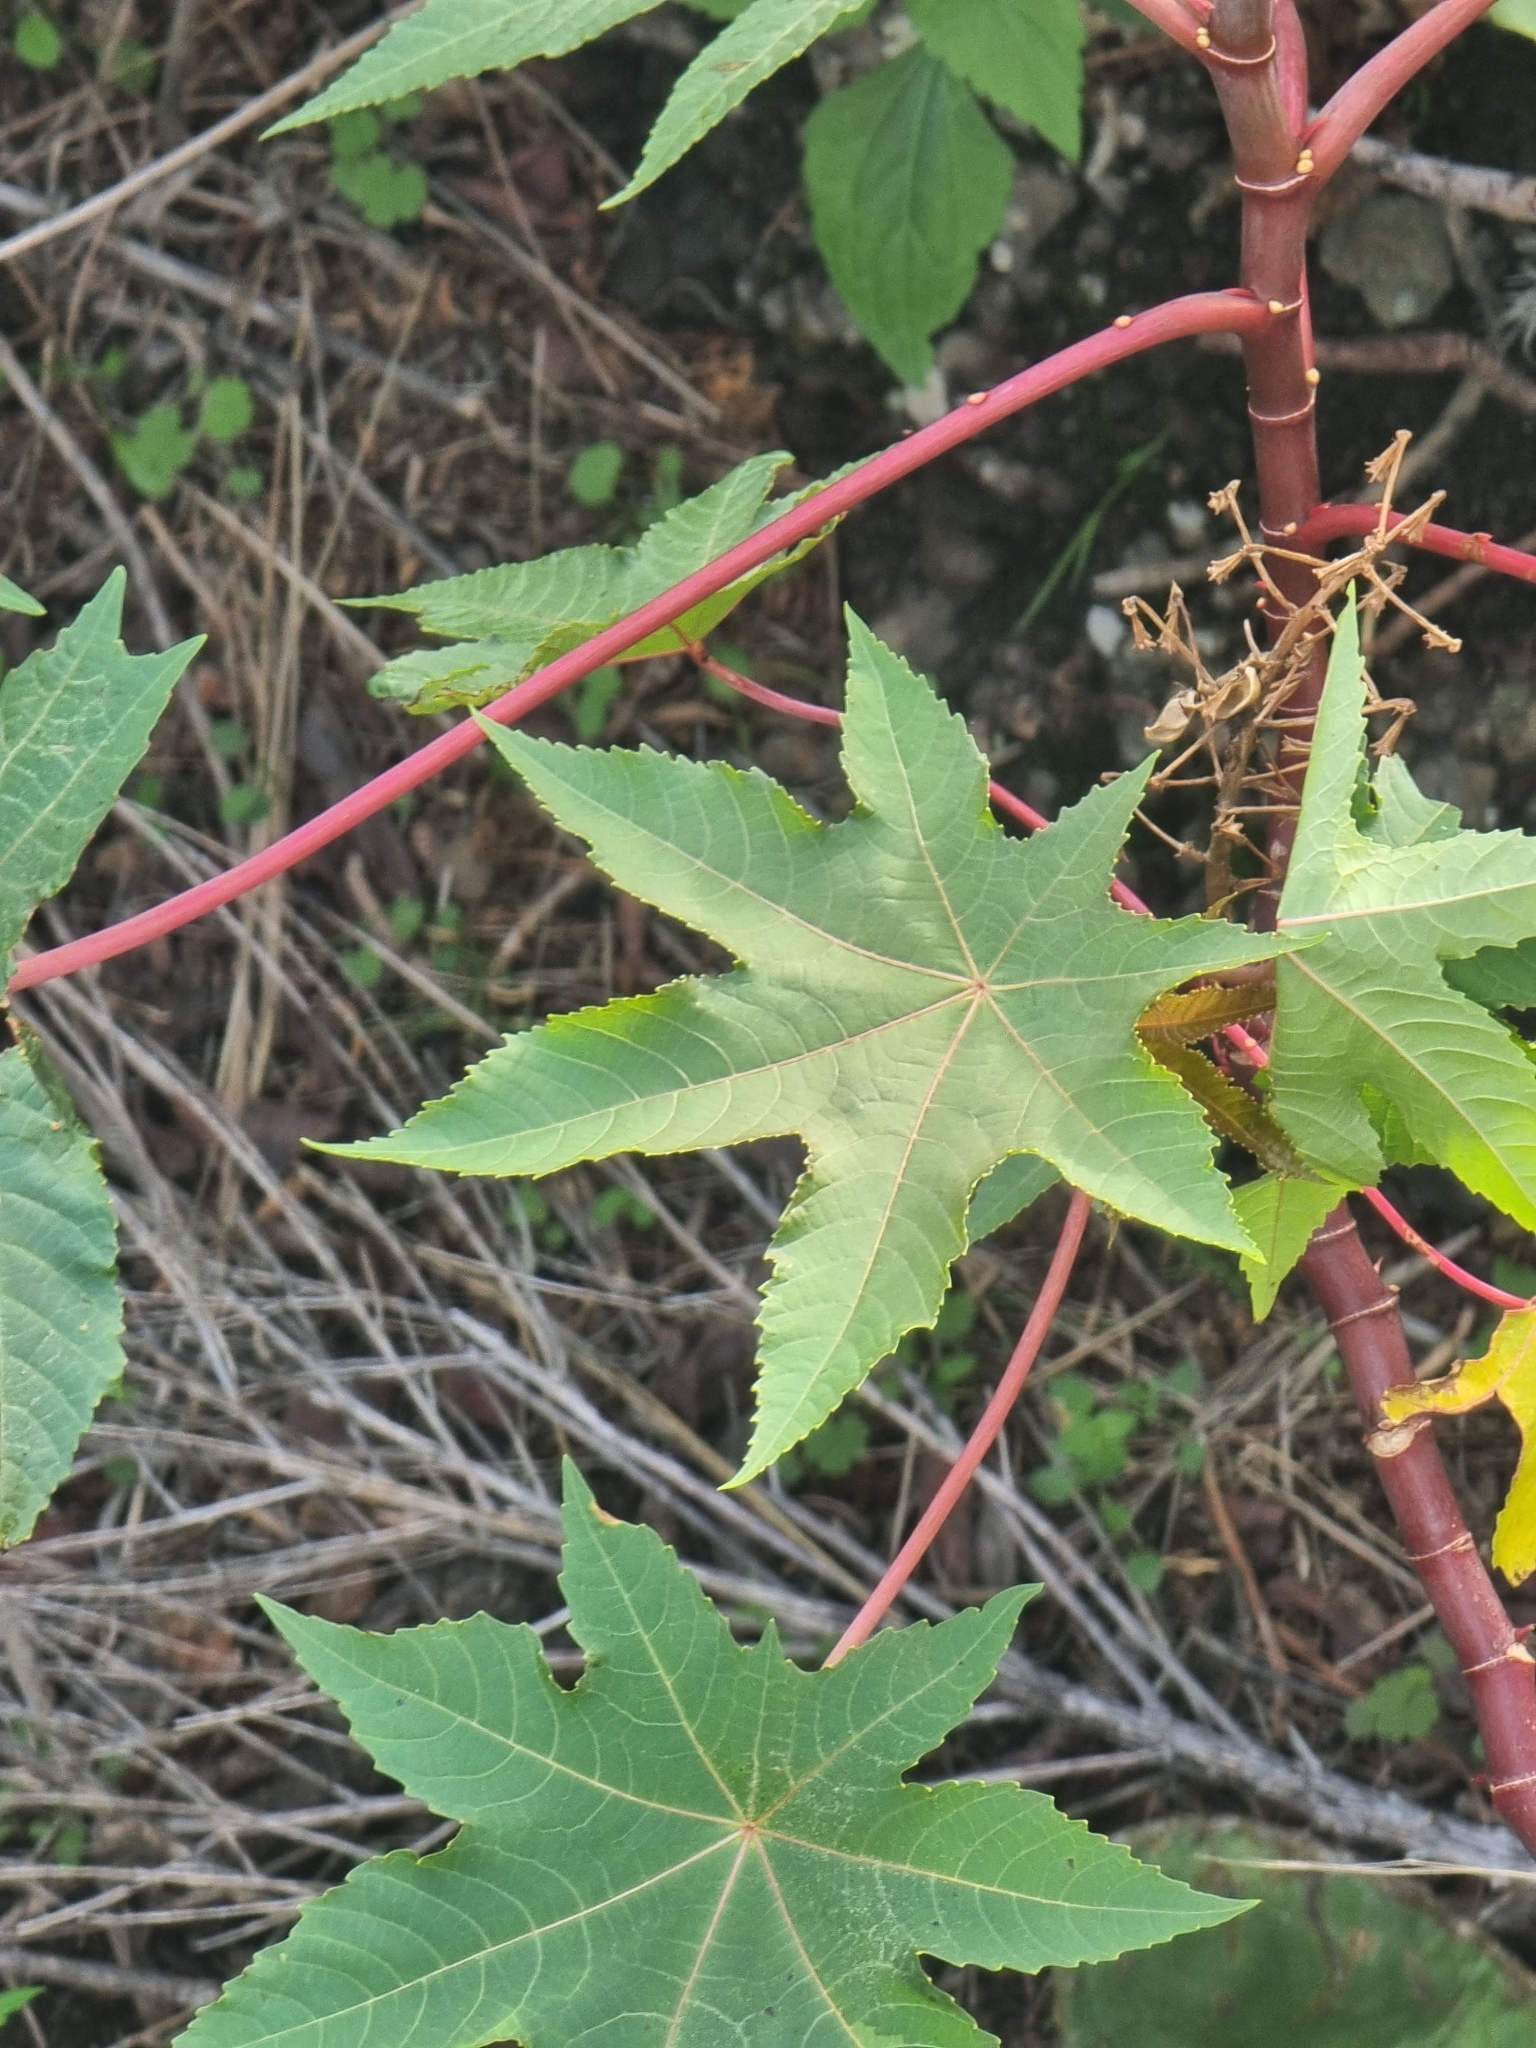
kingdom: Plantae
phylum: Tracheophyta
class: Magnoliopsida
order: Malpighiales
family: Euphorbiaceae
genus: Ricinus
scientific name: Ricinus communis
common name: Castor-oil-plant
